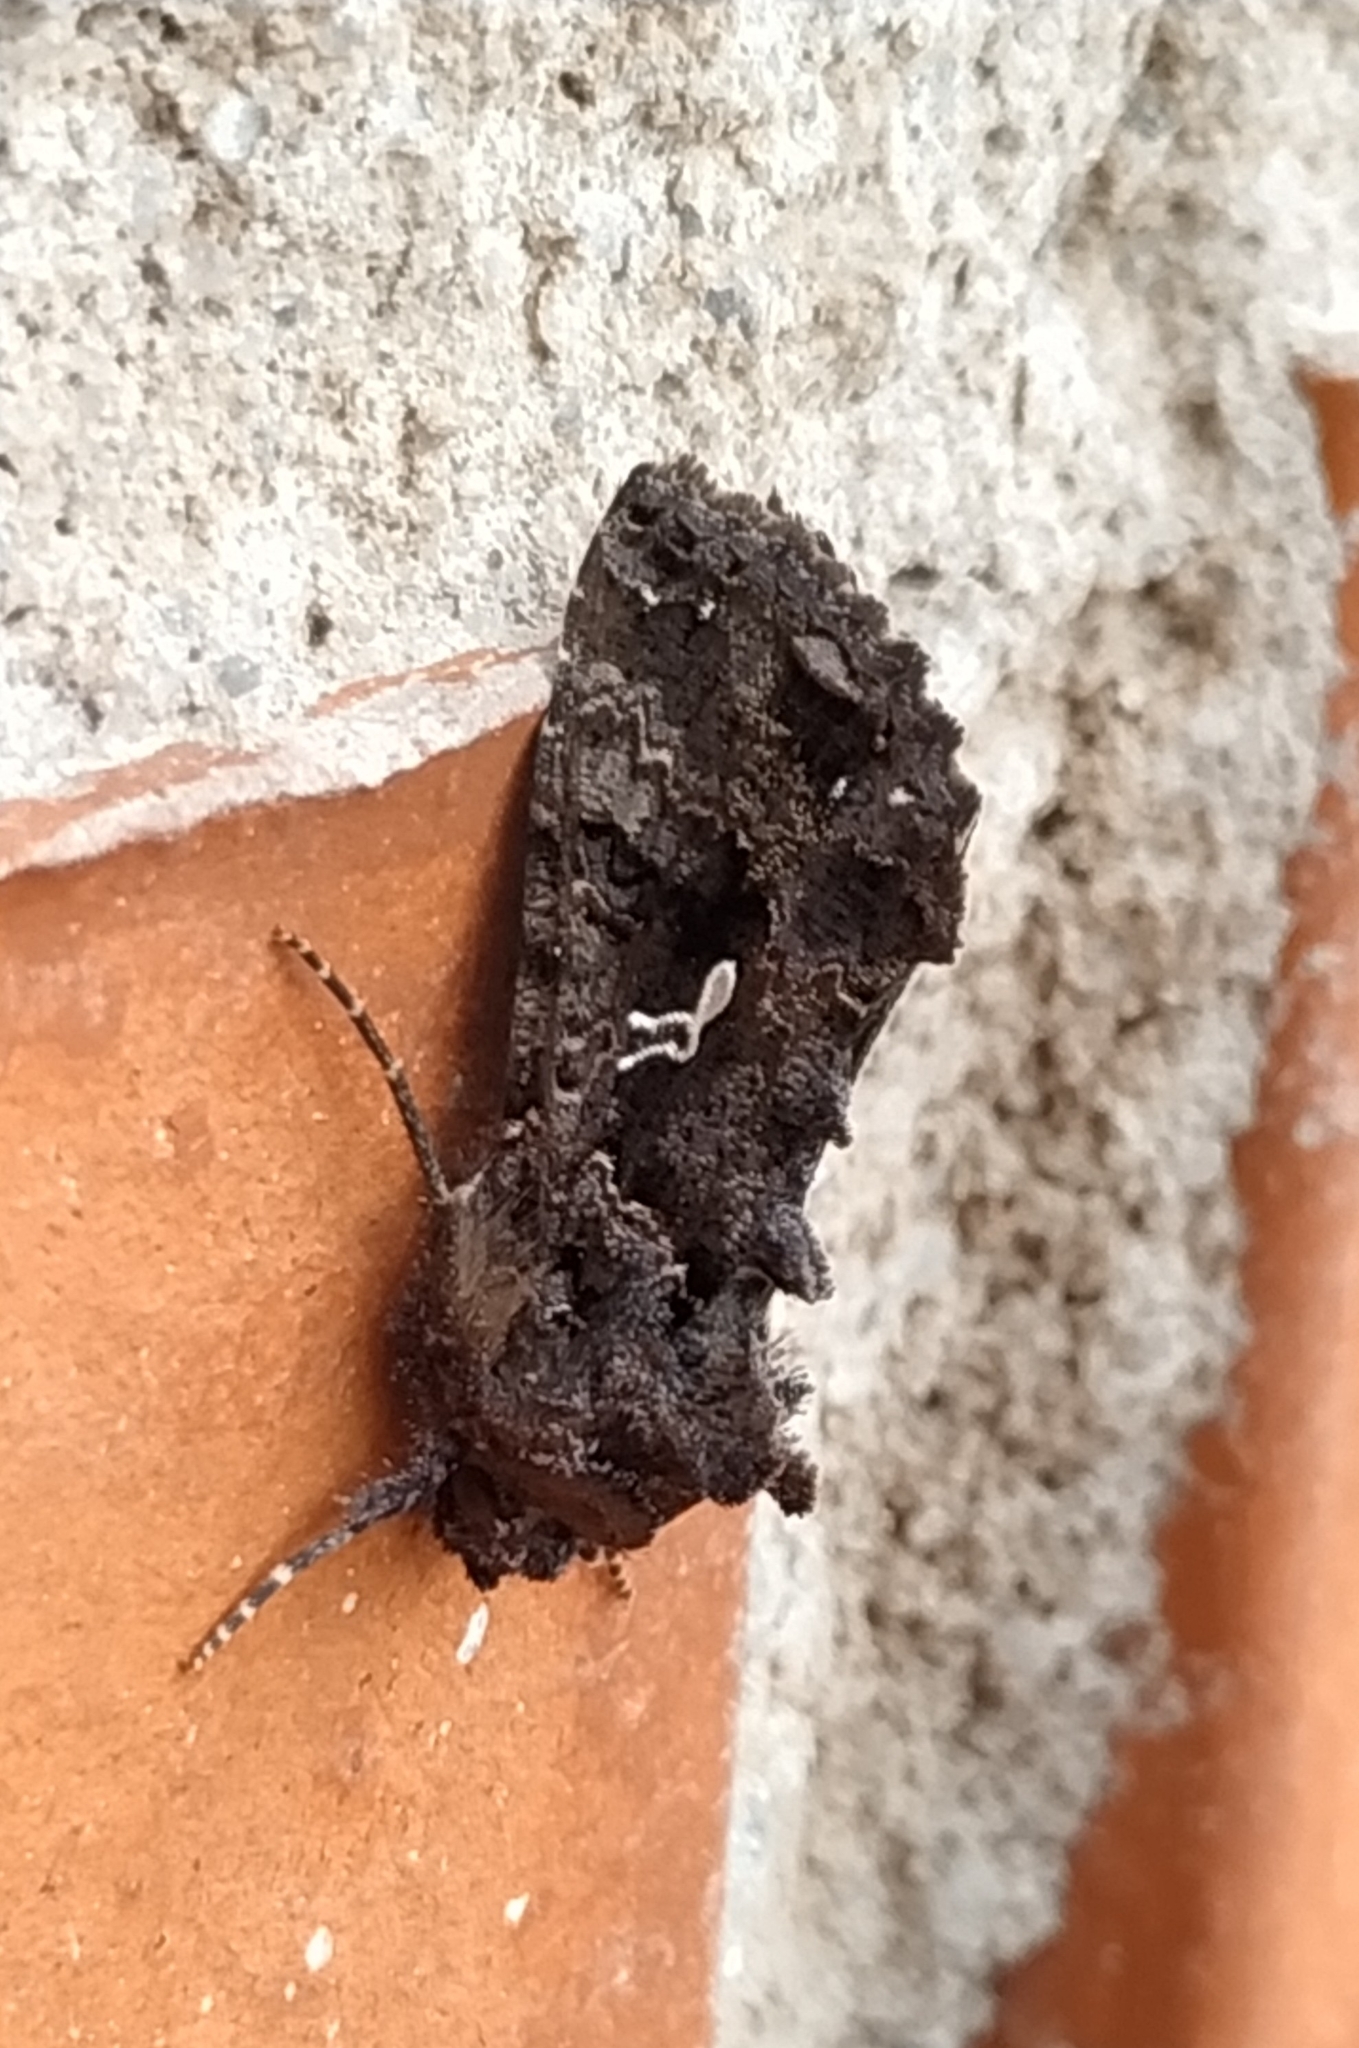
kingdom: Animalia
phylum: Arthropoda
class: Insecta
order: Lepidoptera
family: Noctuidae
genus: Ctenoplusia
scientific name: Ctenoplusia limbirena
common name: Scar bank gem
